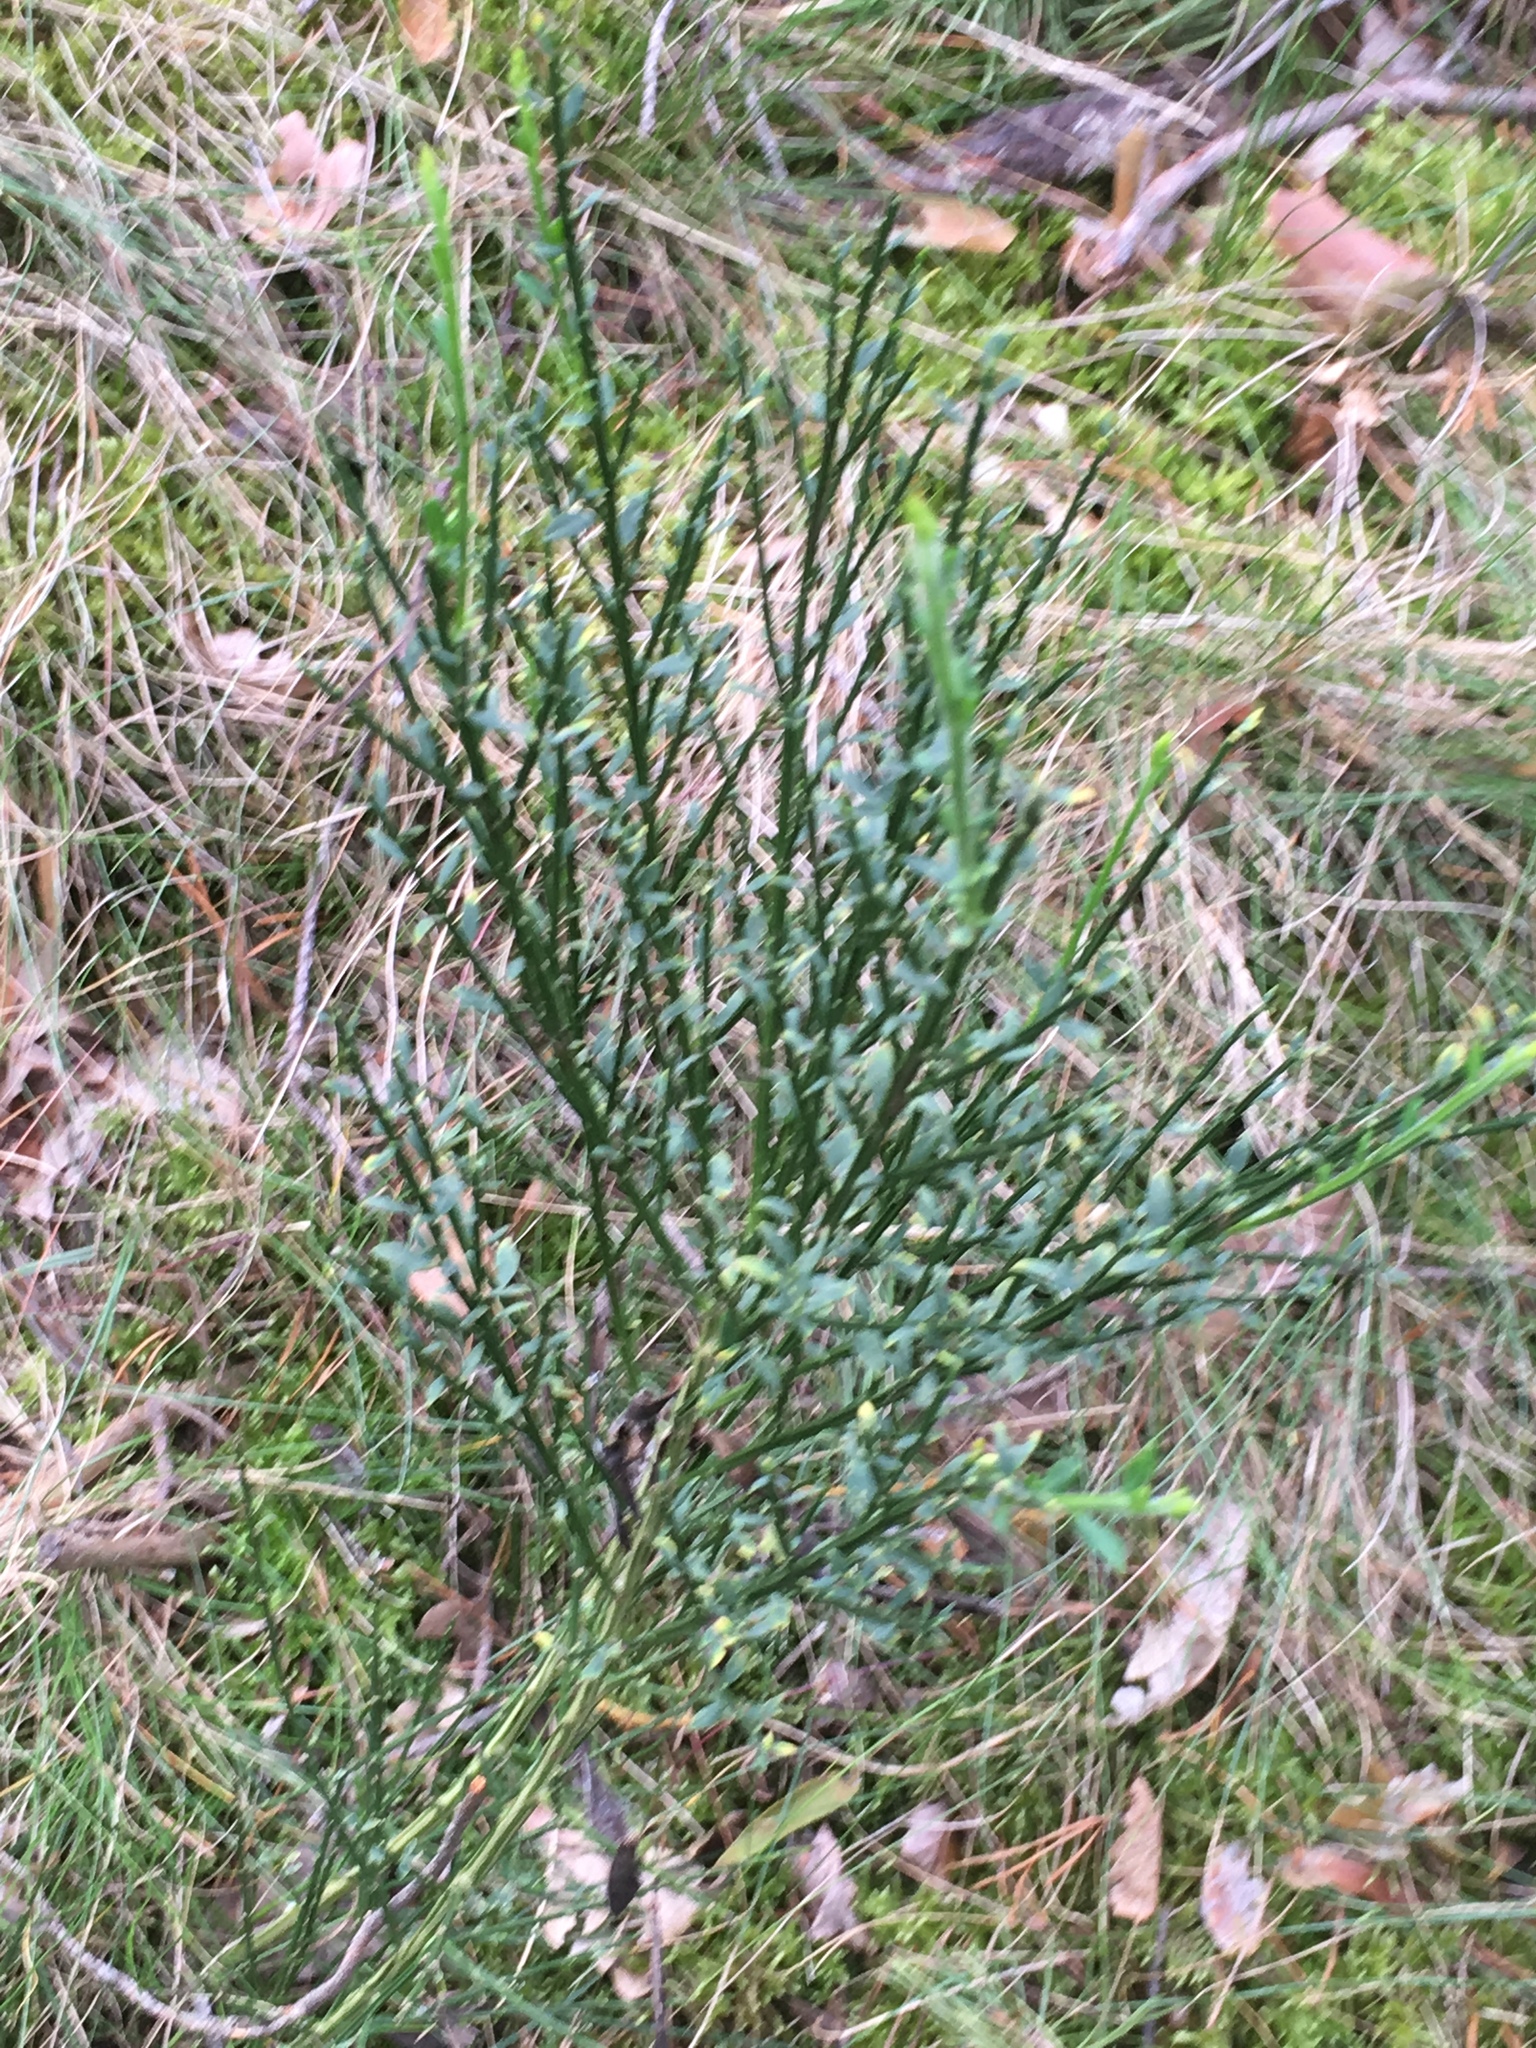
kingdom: Plantae
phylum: Tracheophyta
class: Magnoliopsida
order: Fabales
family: Fabaceae
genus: Cytisus
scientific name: Cytisus scoparius
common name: Scotch broom
